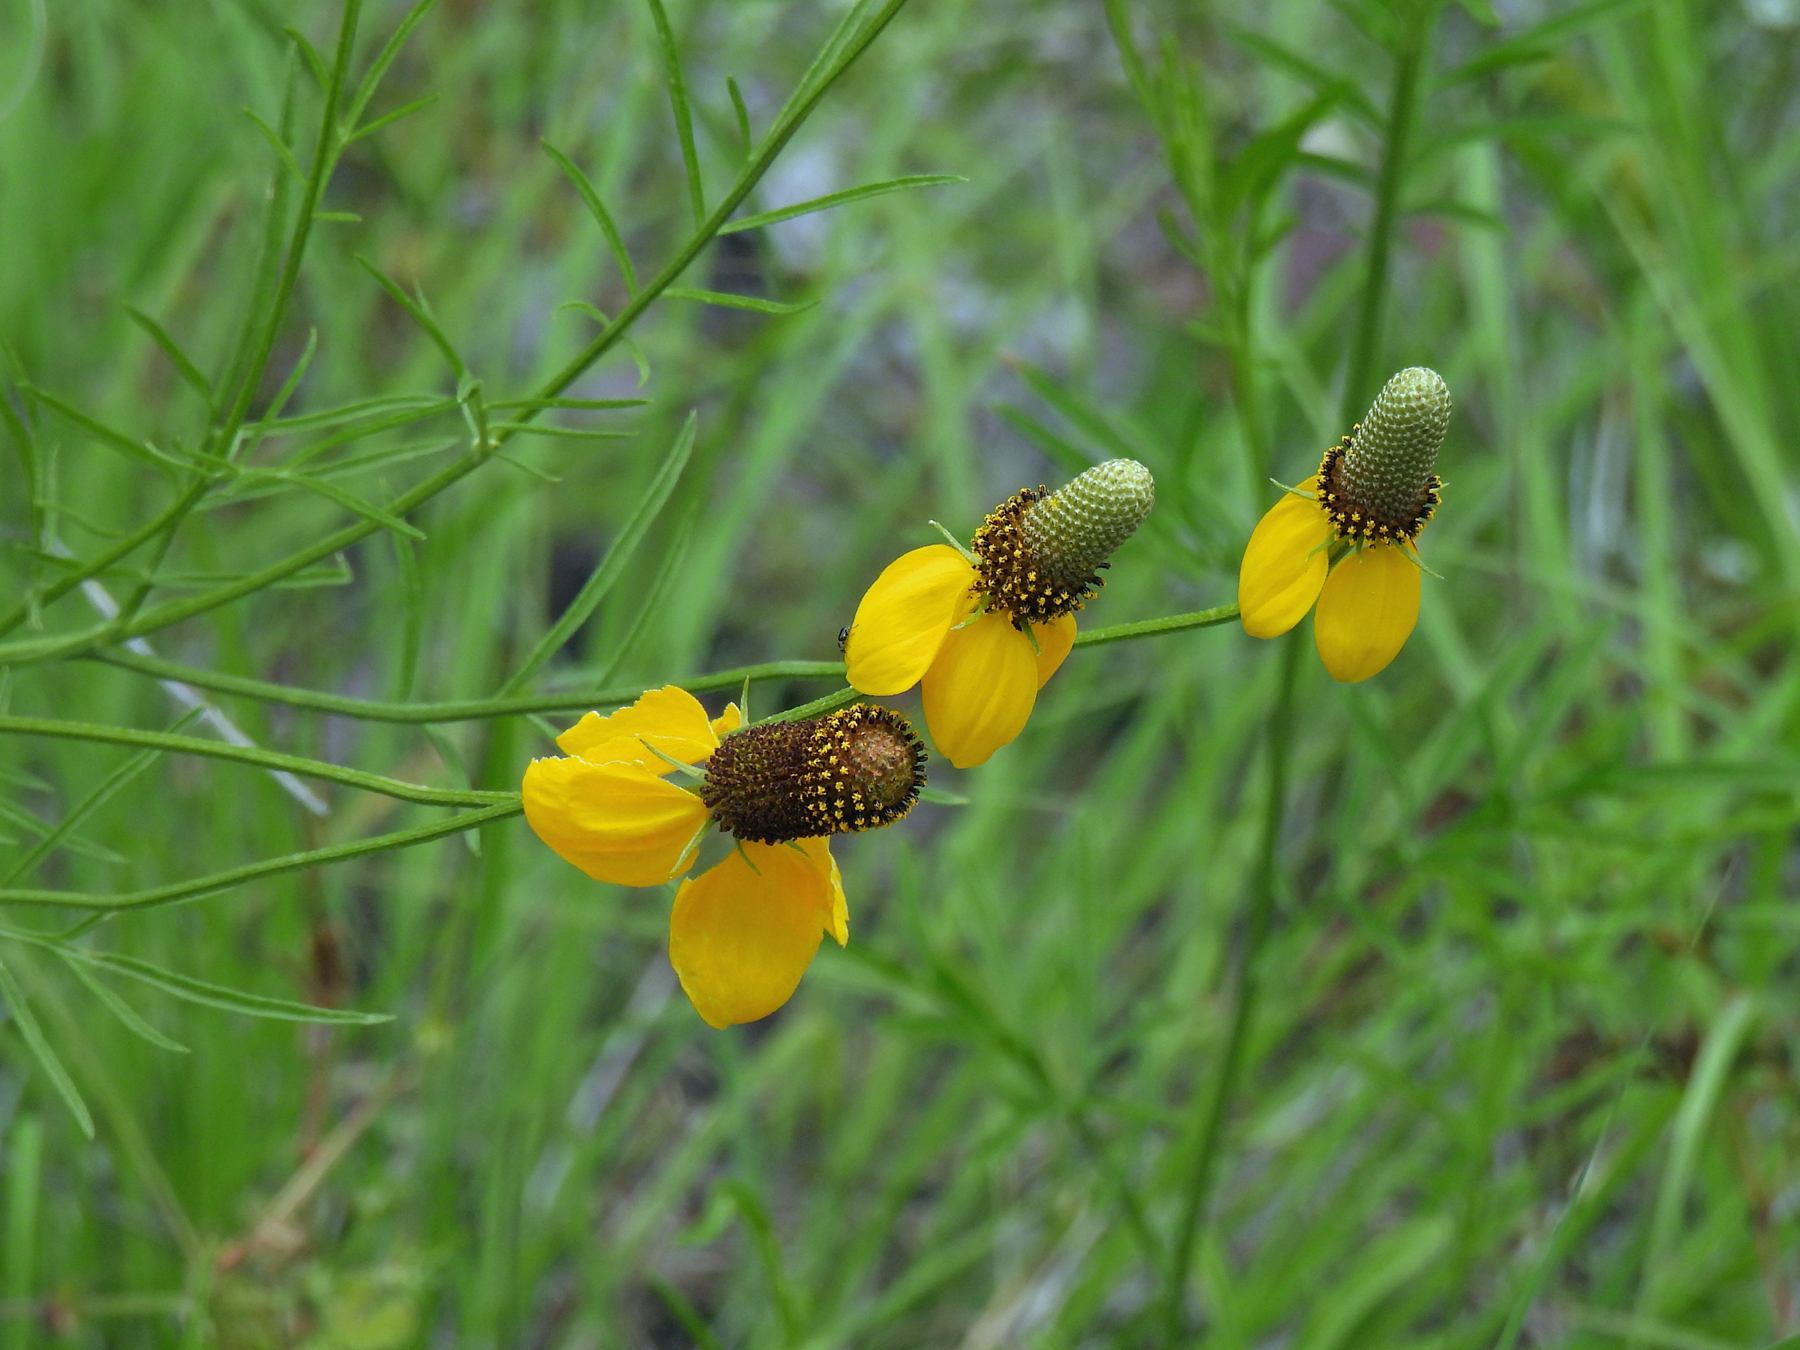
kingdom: Plantae
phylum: Tracheophyta
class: Magnoliopsida
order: Asterales
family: Asteraceae
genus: Ratibida
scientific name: Ratibida columnifera
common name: Prairie coneflower
